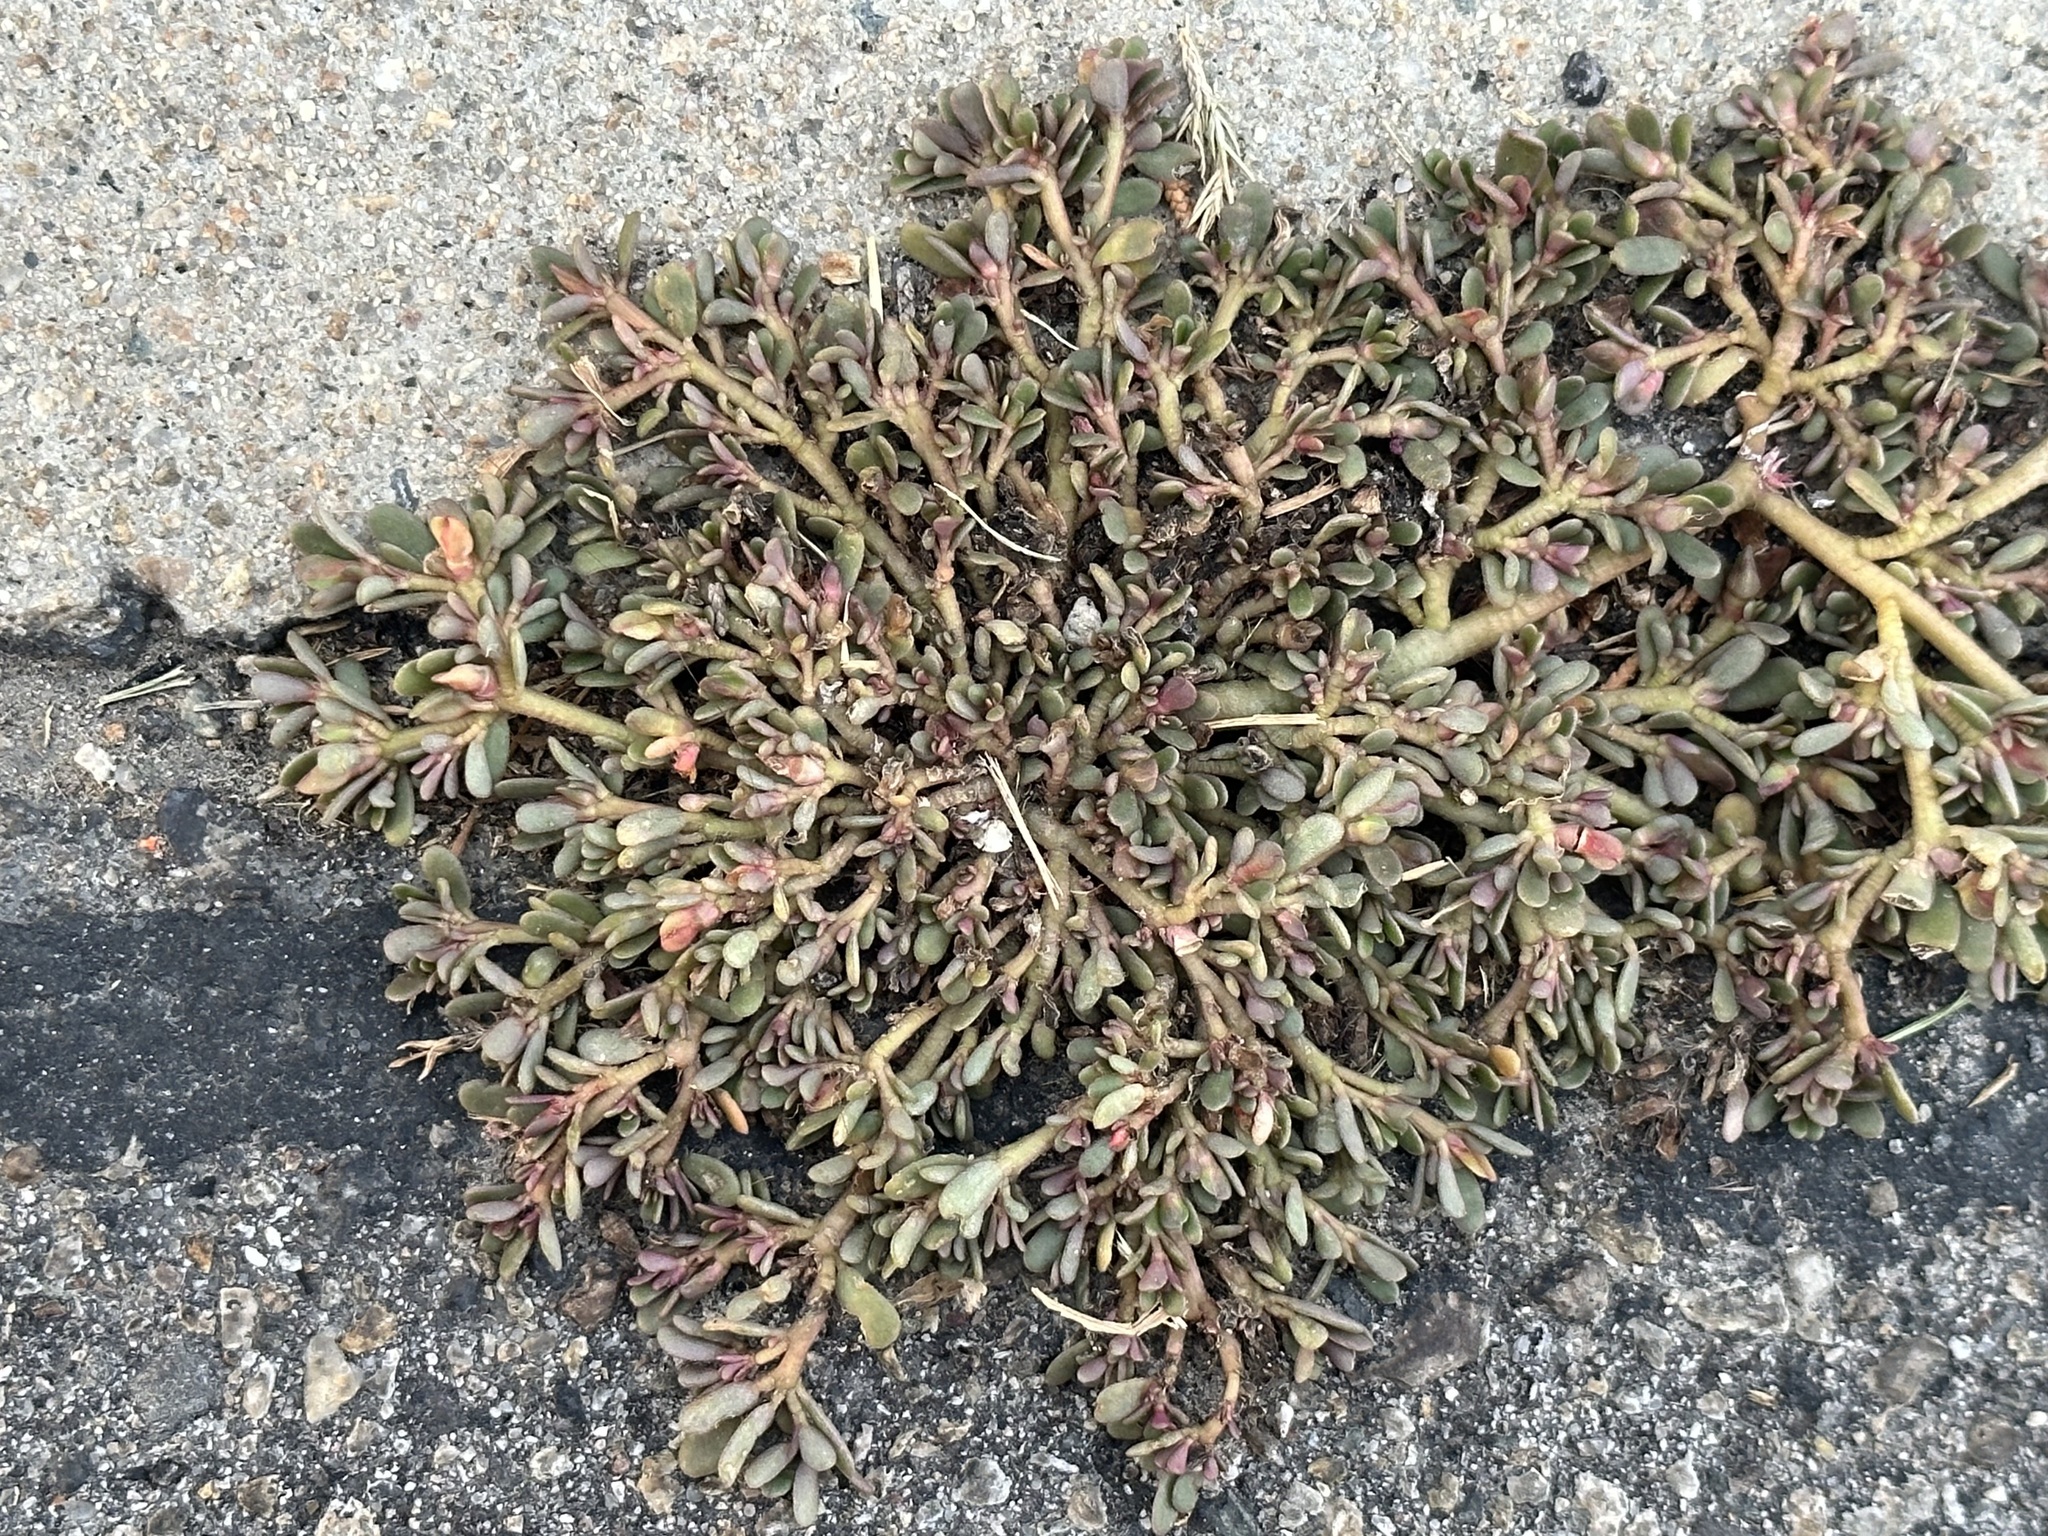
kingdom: Plantae
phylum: Tracheophyta
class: Magnoliopsida
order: Caryophyllales
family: Portulacaceae
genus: Portulaca
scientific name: Portulaca oleracea
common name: Common purslane
